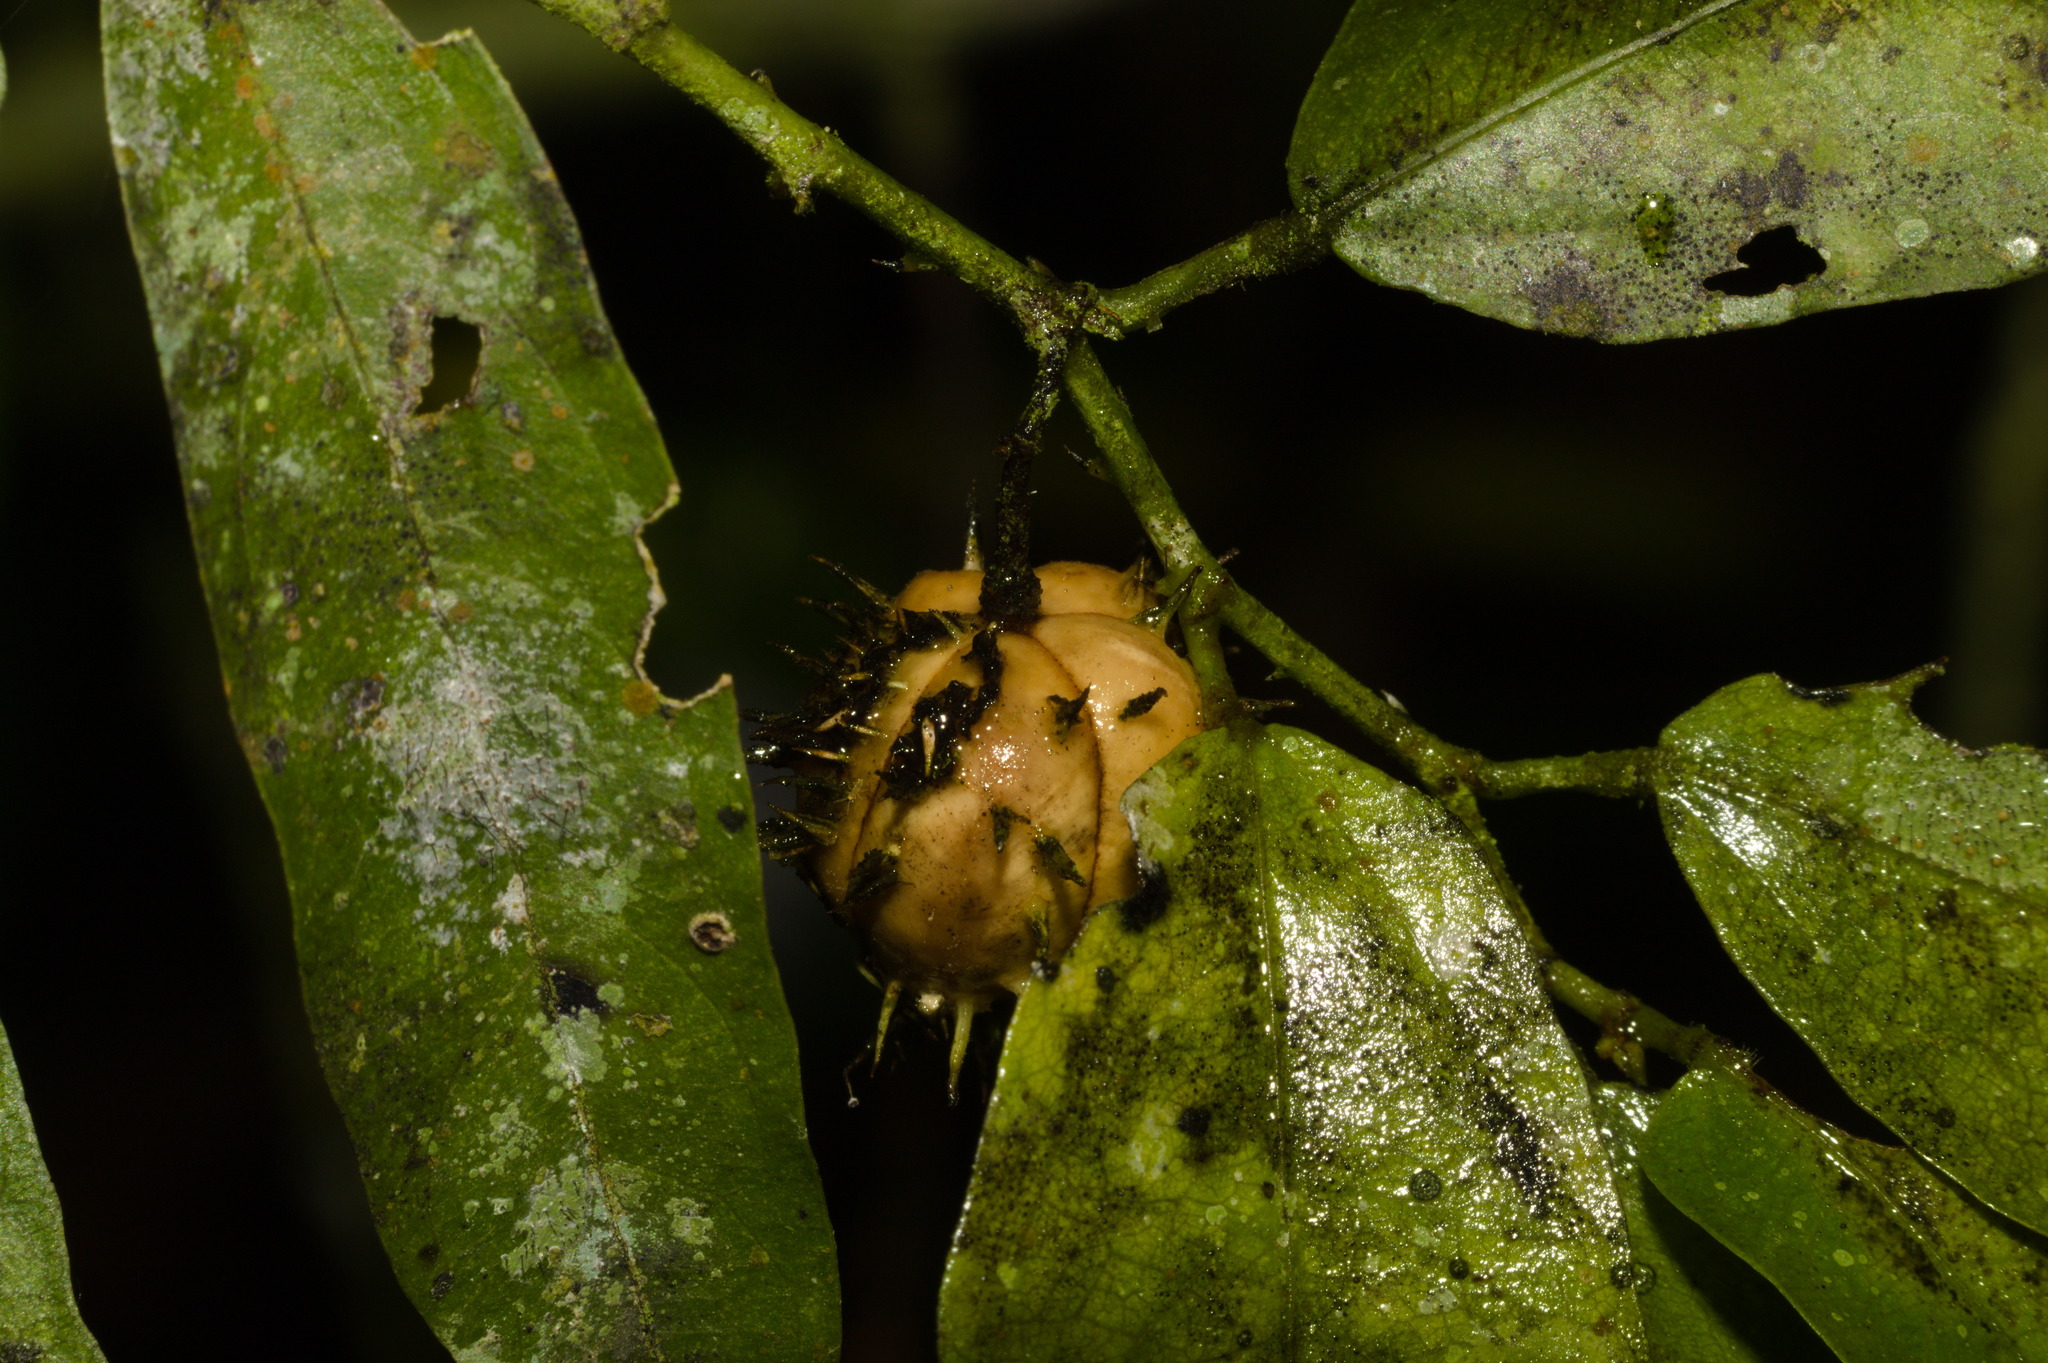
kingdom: Plantae
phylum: Tracheophyta
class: Magnoliopsida
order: Malvales
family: Malvaceae
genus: Byttneria
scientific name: Byttneria australis
